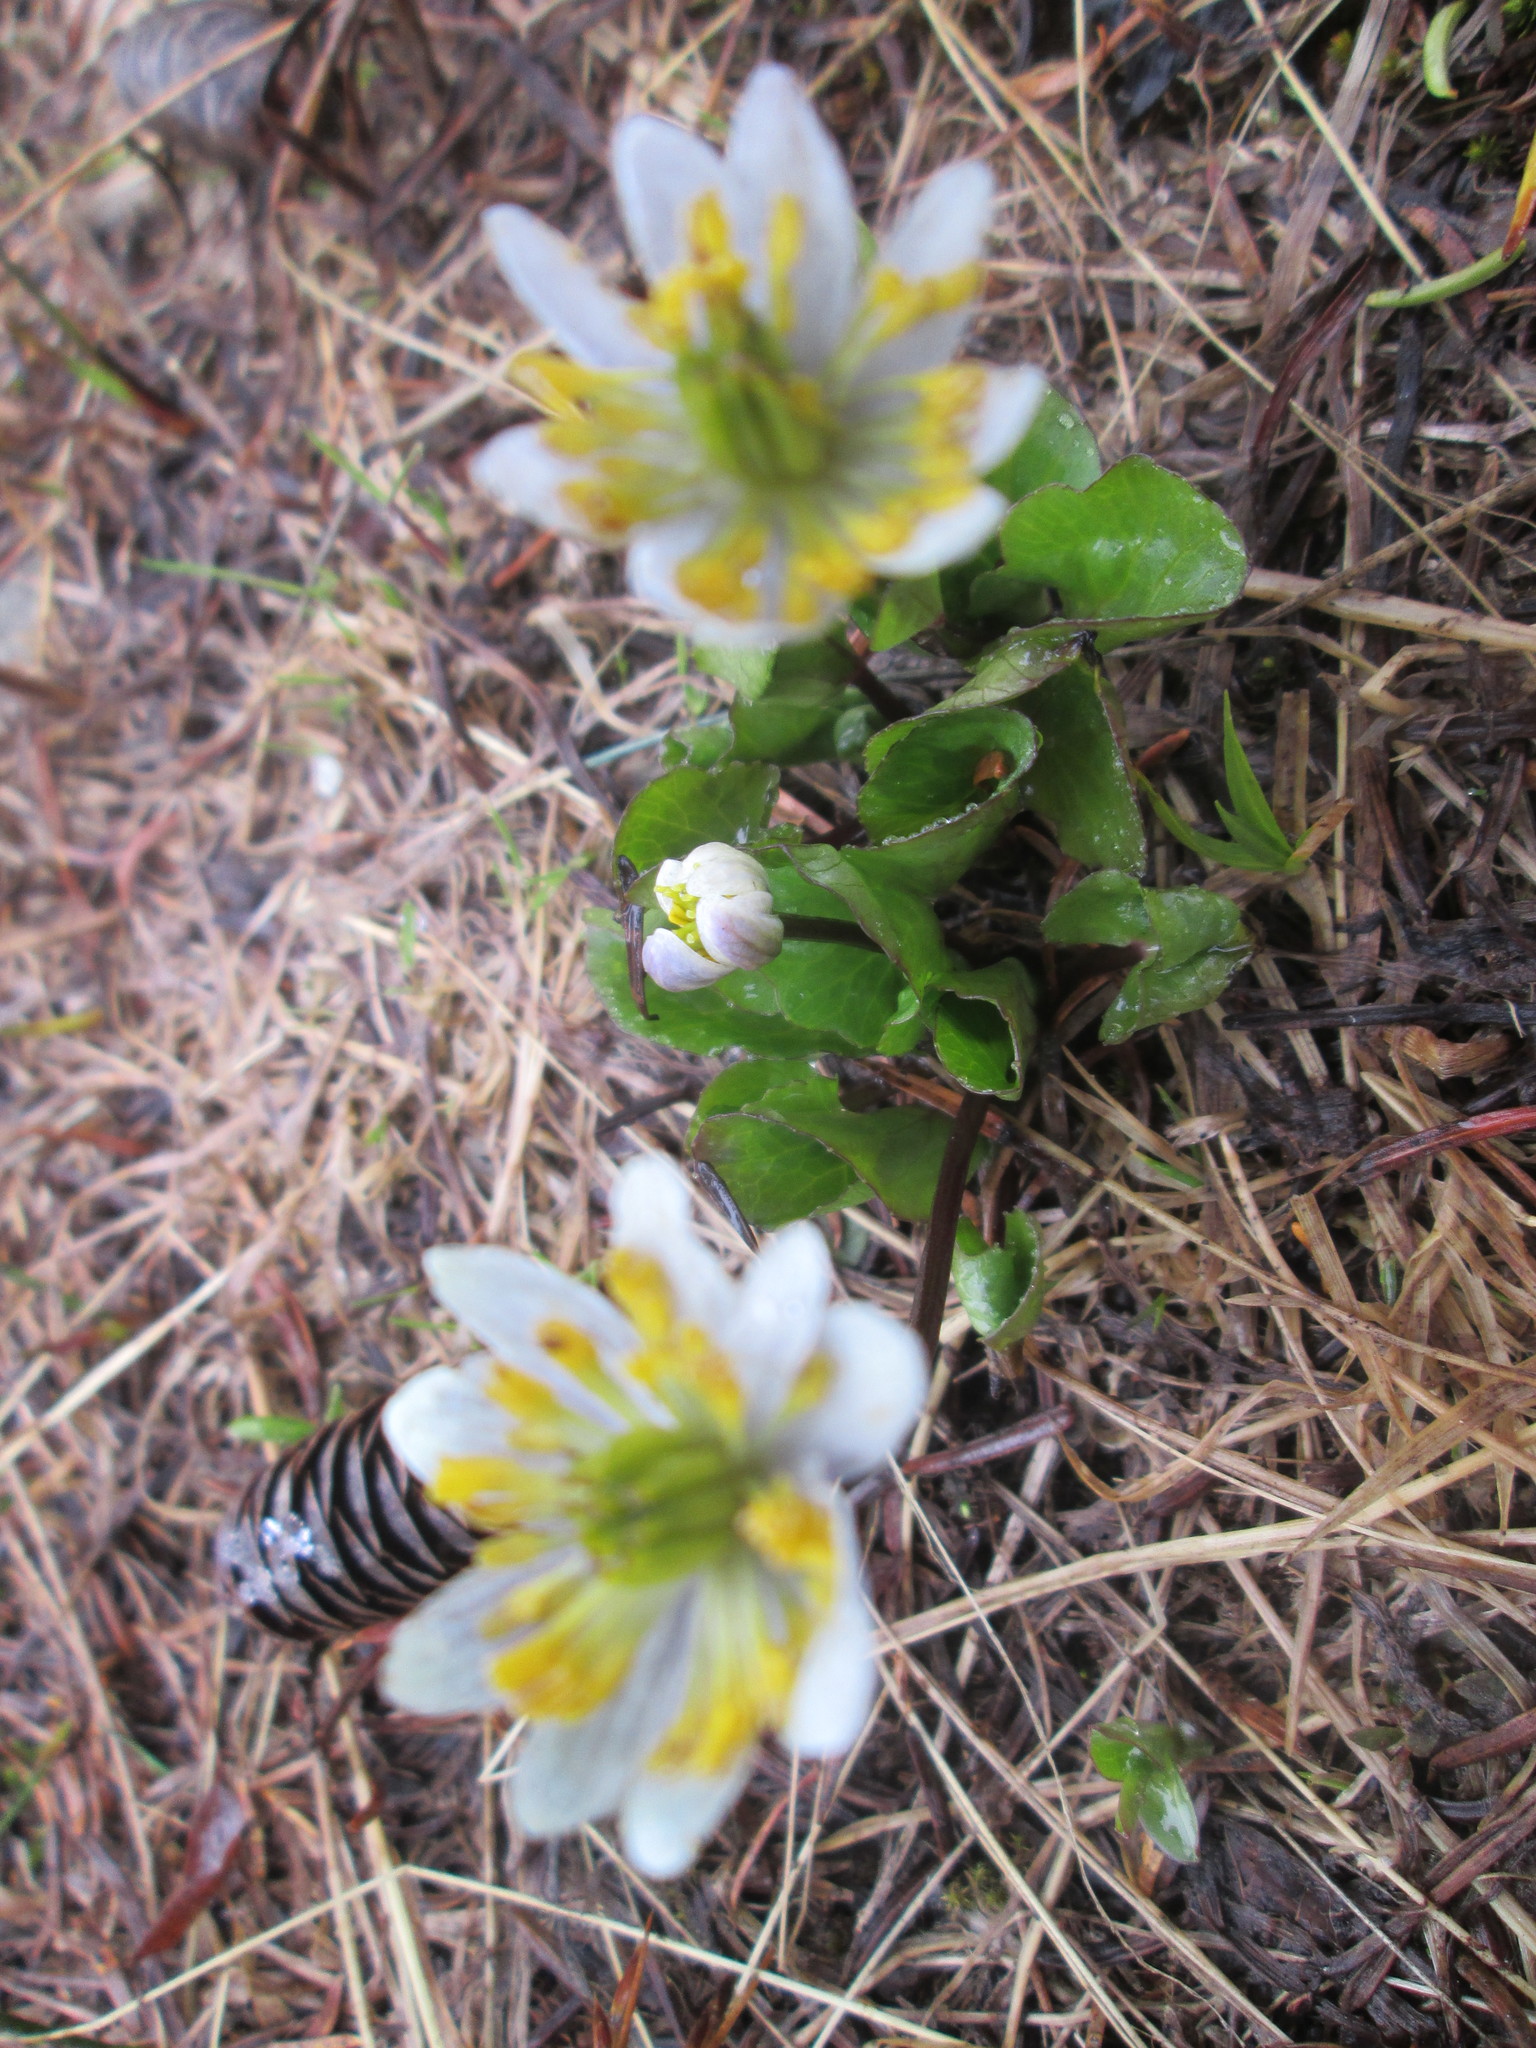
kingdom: Plantae
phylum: Tracheophyta
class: Magnoliopsida
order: Ranunculales
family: Ranunculaceae
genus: Caltha
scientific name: Caltha leptosepala
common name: Elkslip
